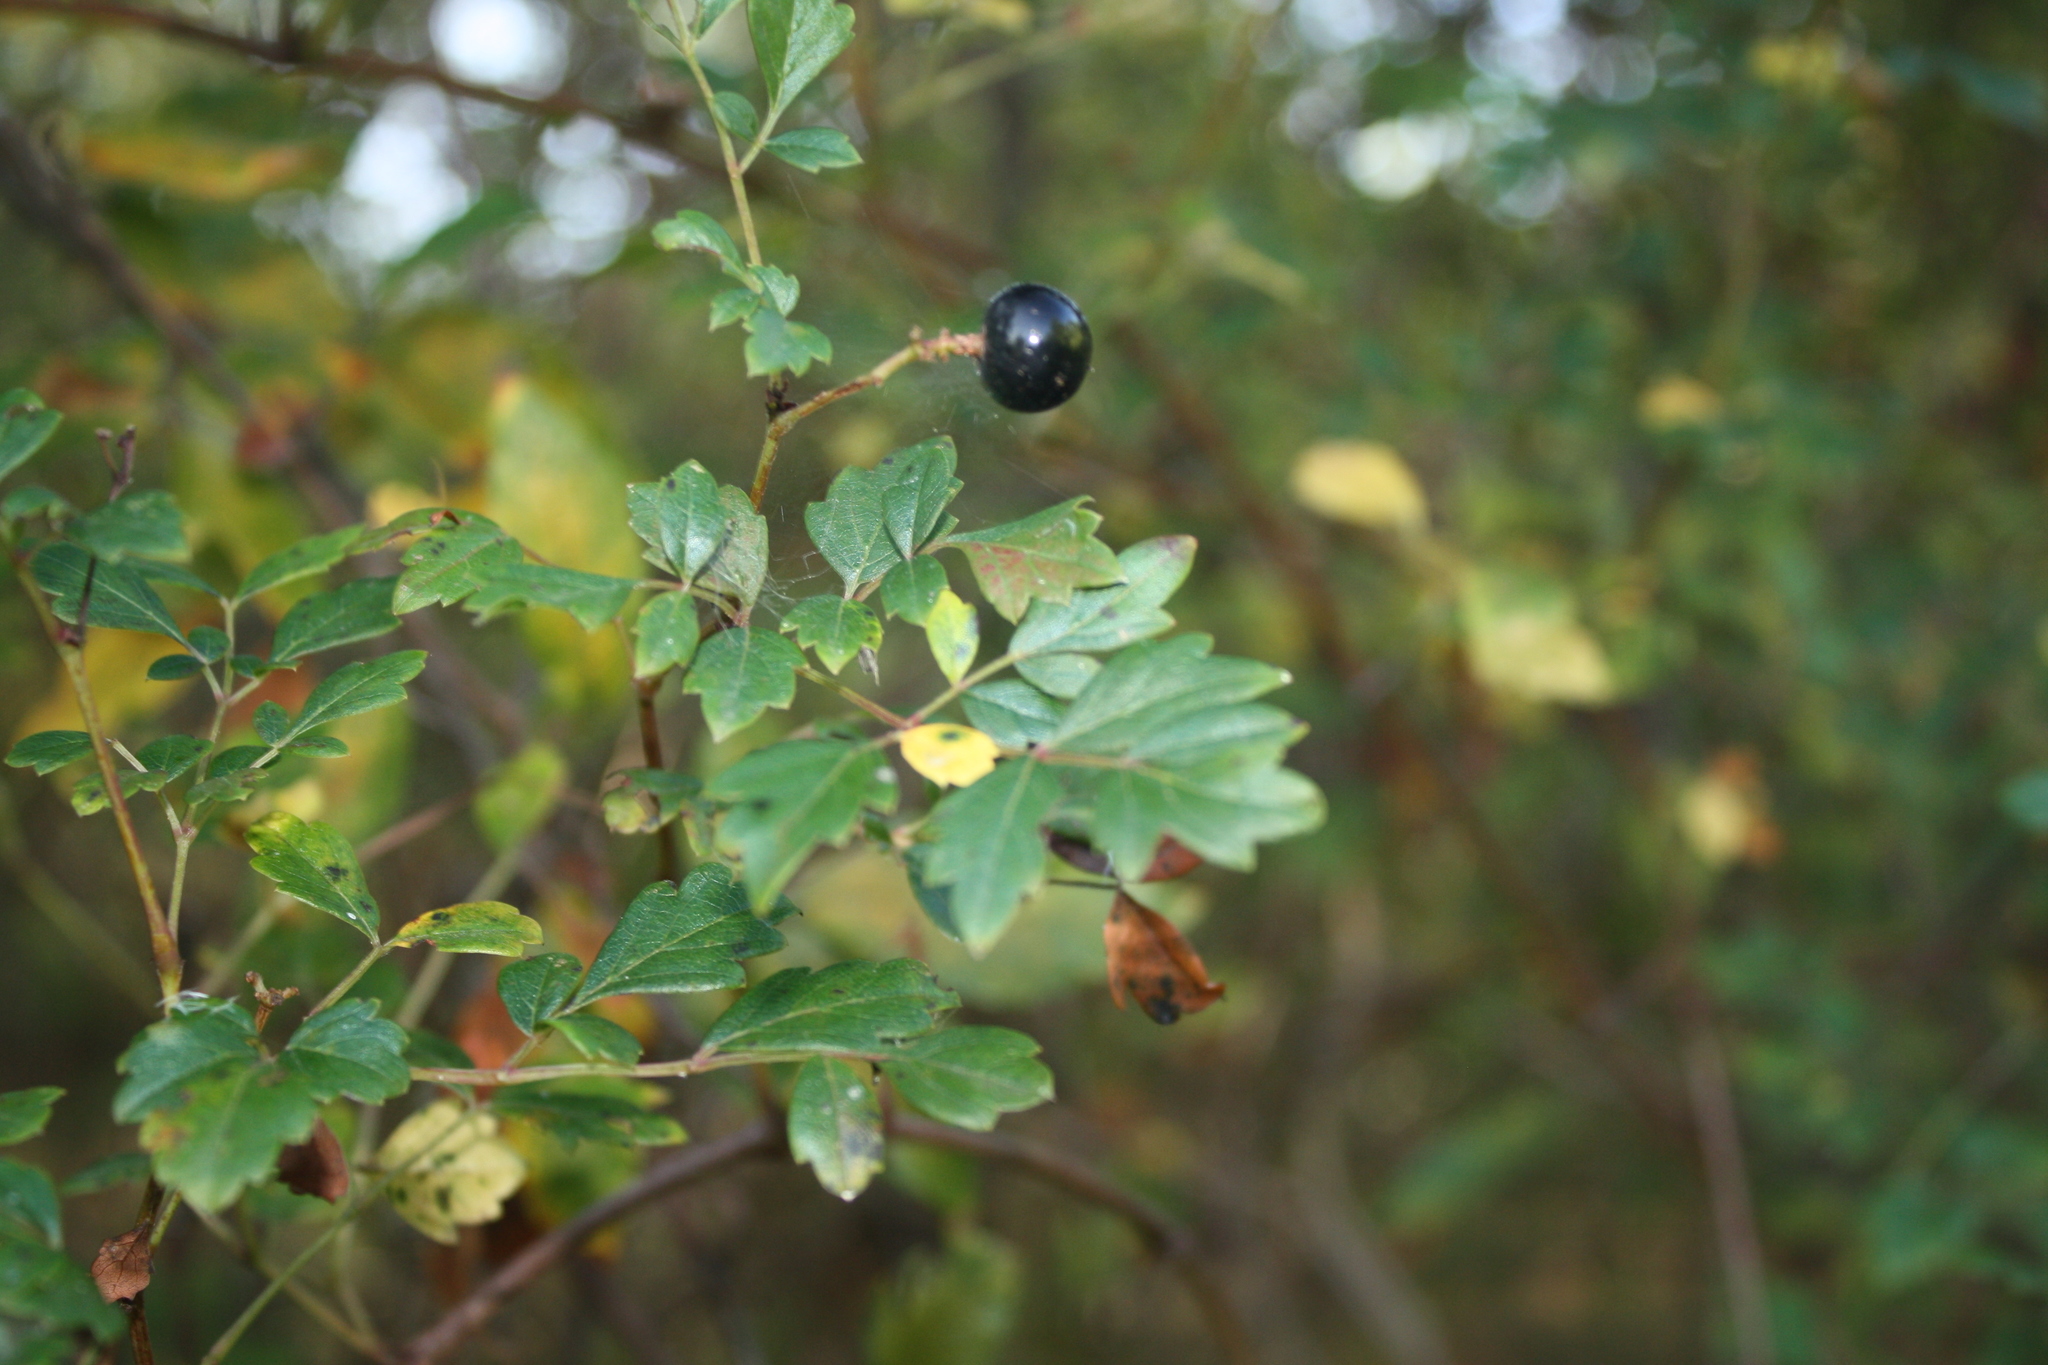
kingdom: Plantae
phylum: Tracheophyta
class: Magnoliopsida
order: Vitales
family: Vitaceae
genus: Nekemias
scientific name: Nekemias arborea
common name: Peppervine
